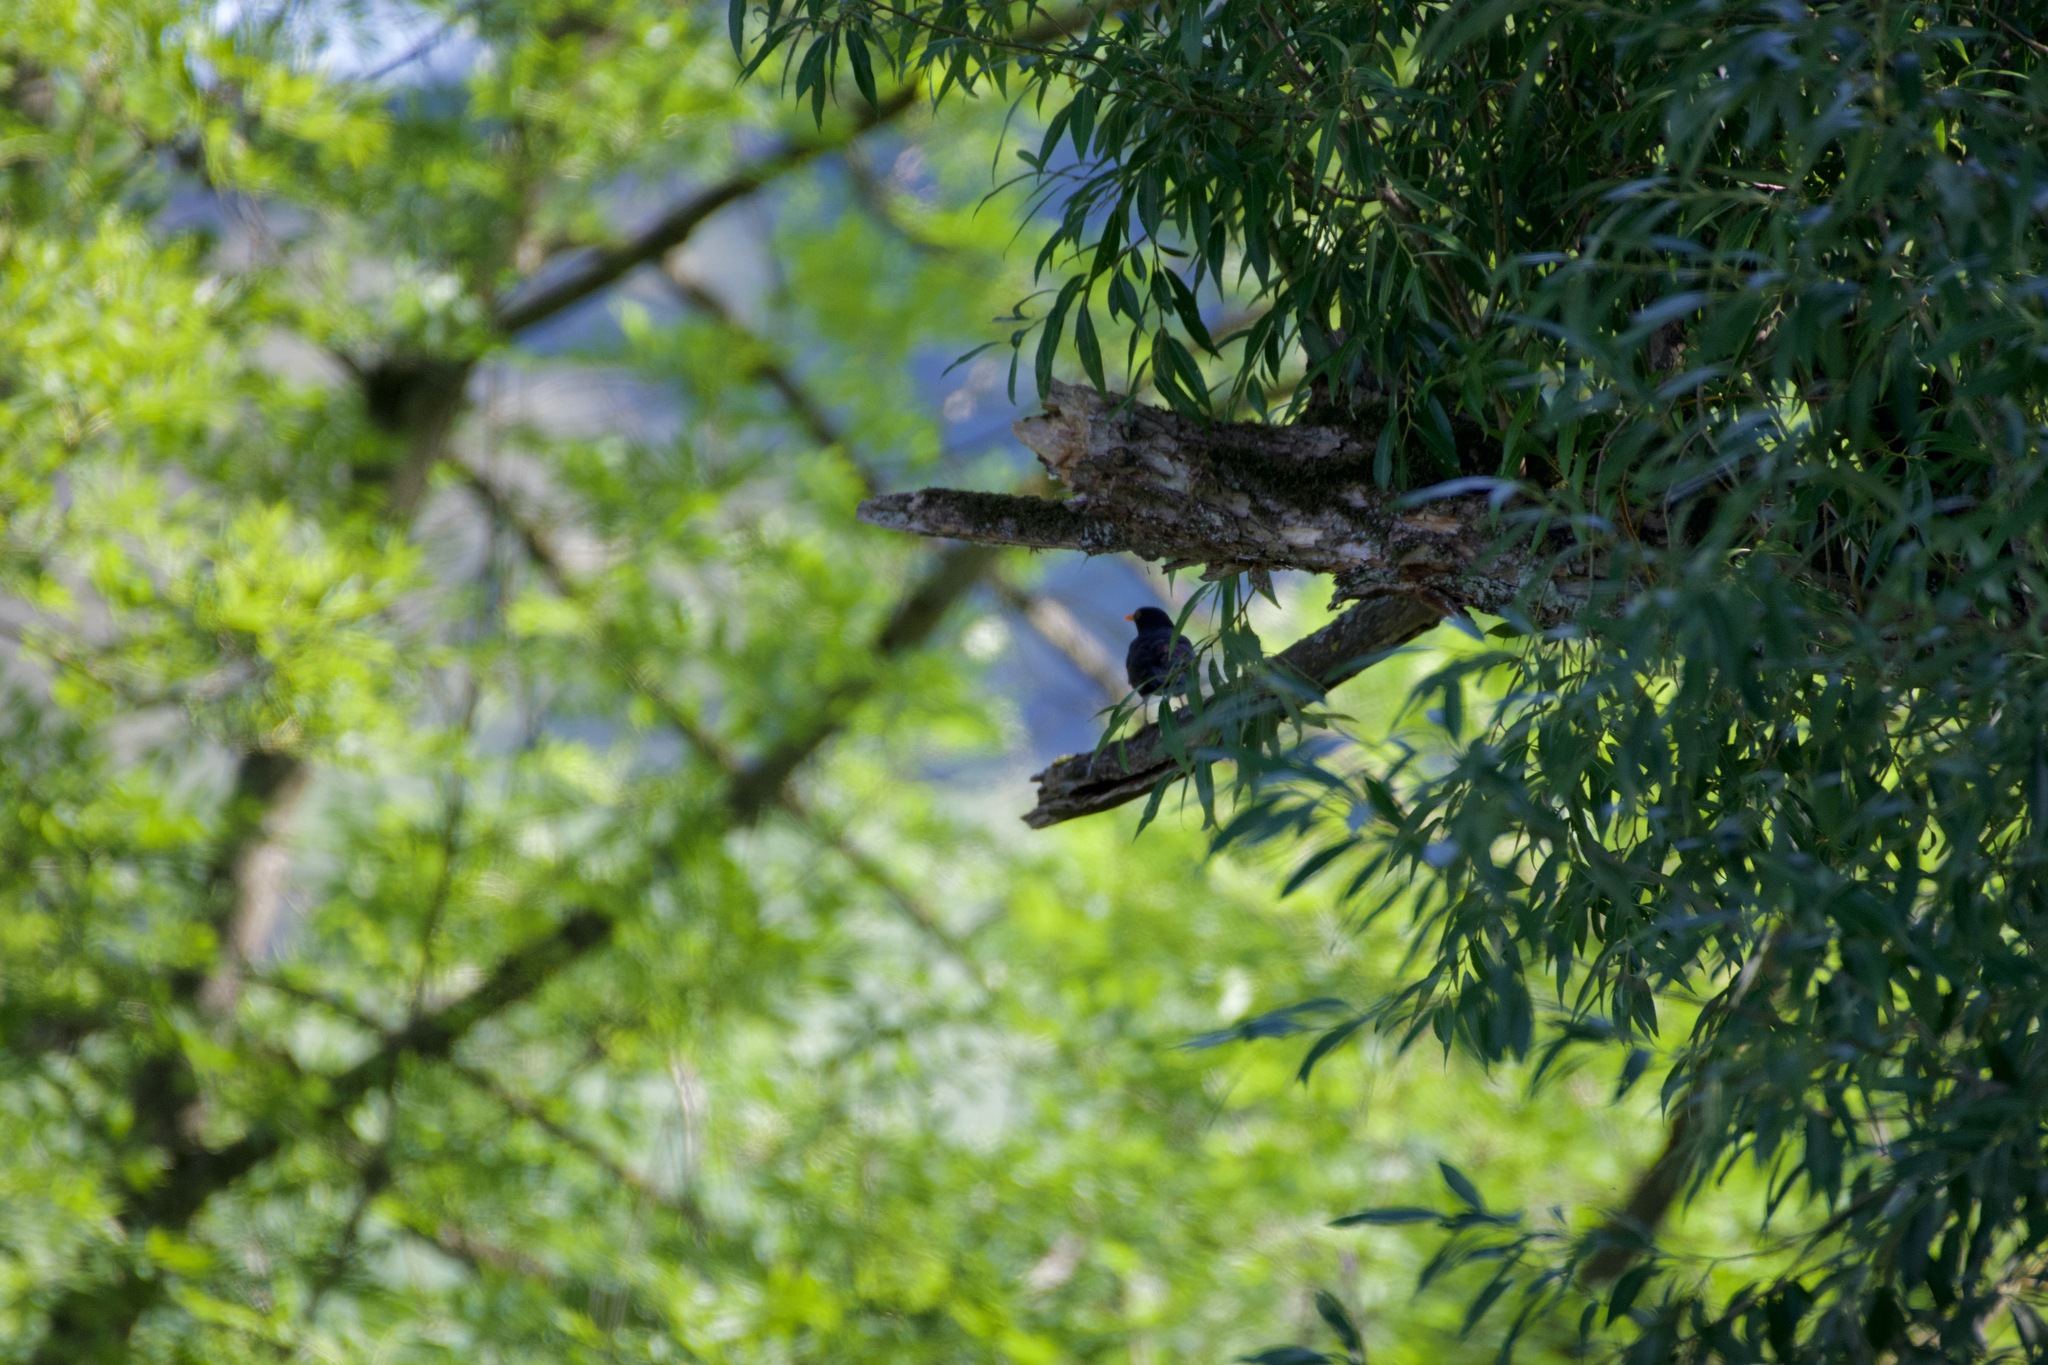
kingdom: Animalia
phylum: Chordata
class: Aves
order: Passeriformes
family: Turdidae
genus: Turdus
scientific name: Turdus merula
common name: Common blackbird
